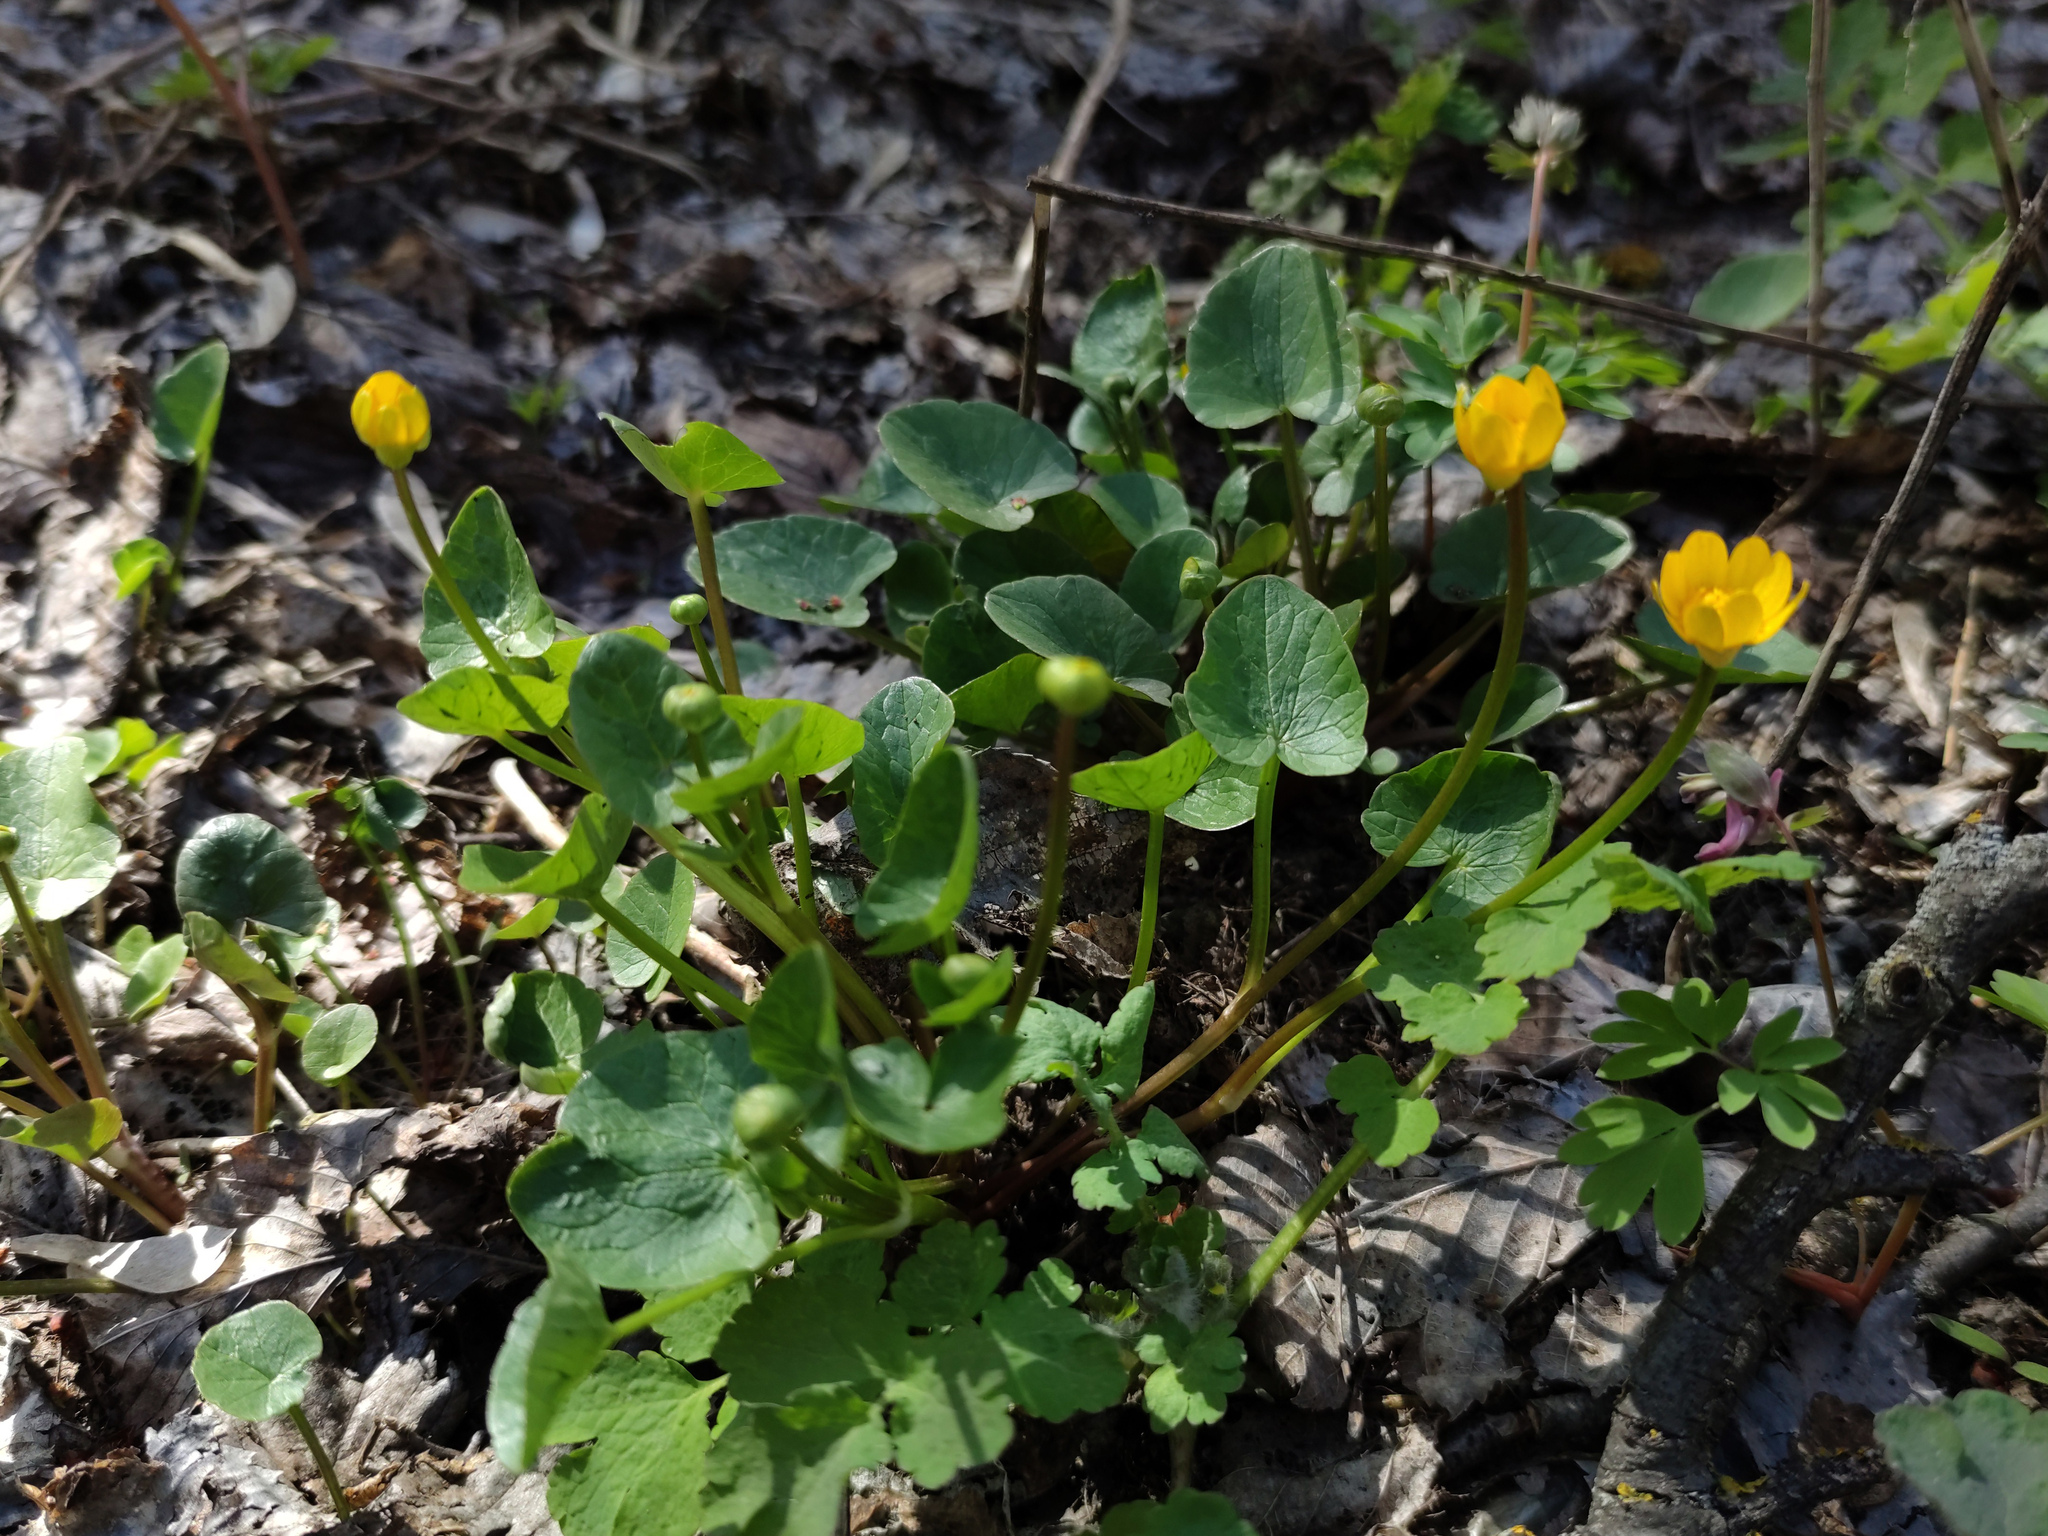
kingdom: Plantae
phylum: Tracheophyta
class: Magnoliopsida
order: Ranunculales
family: Ranunculaceae
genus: Ficaria
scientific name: Ficaria verna
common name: Lesser celandine
